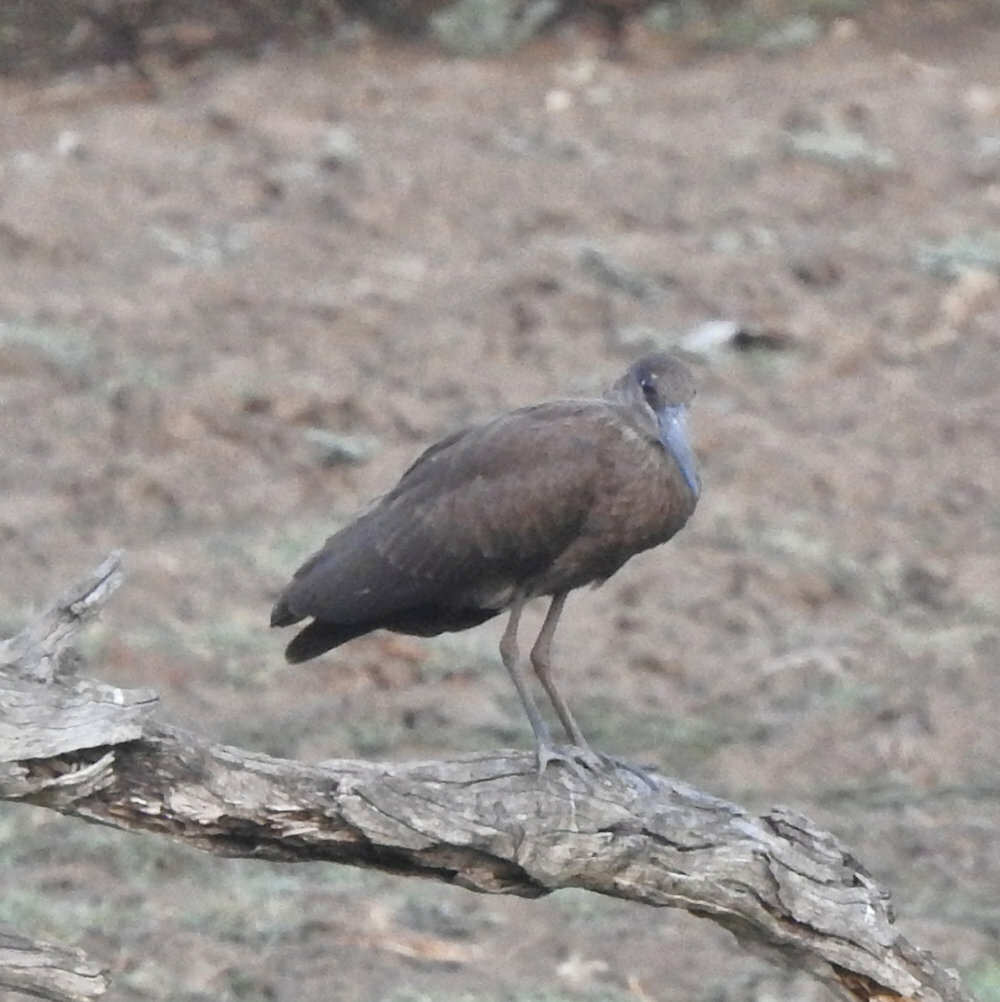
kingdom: Animalia
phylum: Chordata
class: Aves
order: Pelecaniformes
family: Scopidae
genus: Scopus
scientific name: Scopus umbretta
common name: Hamerkop
